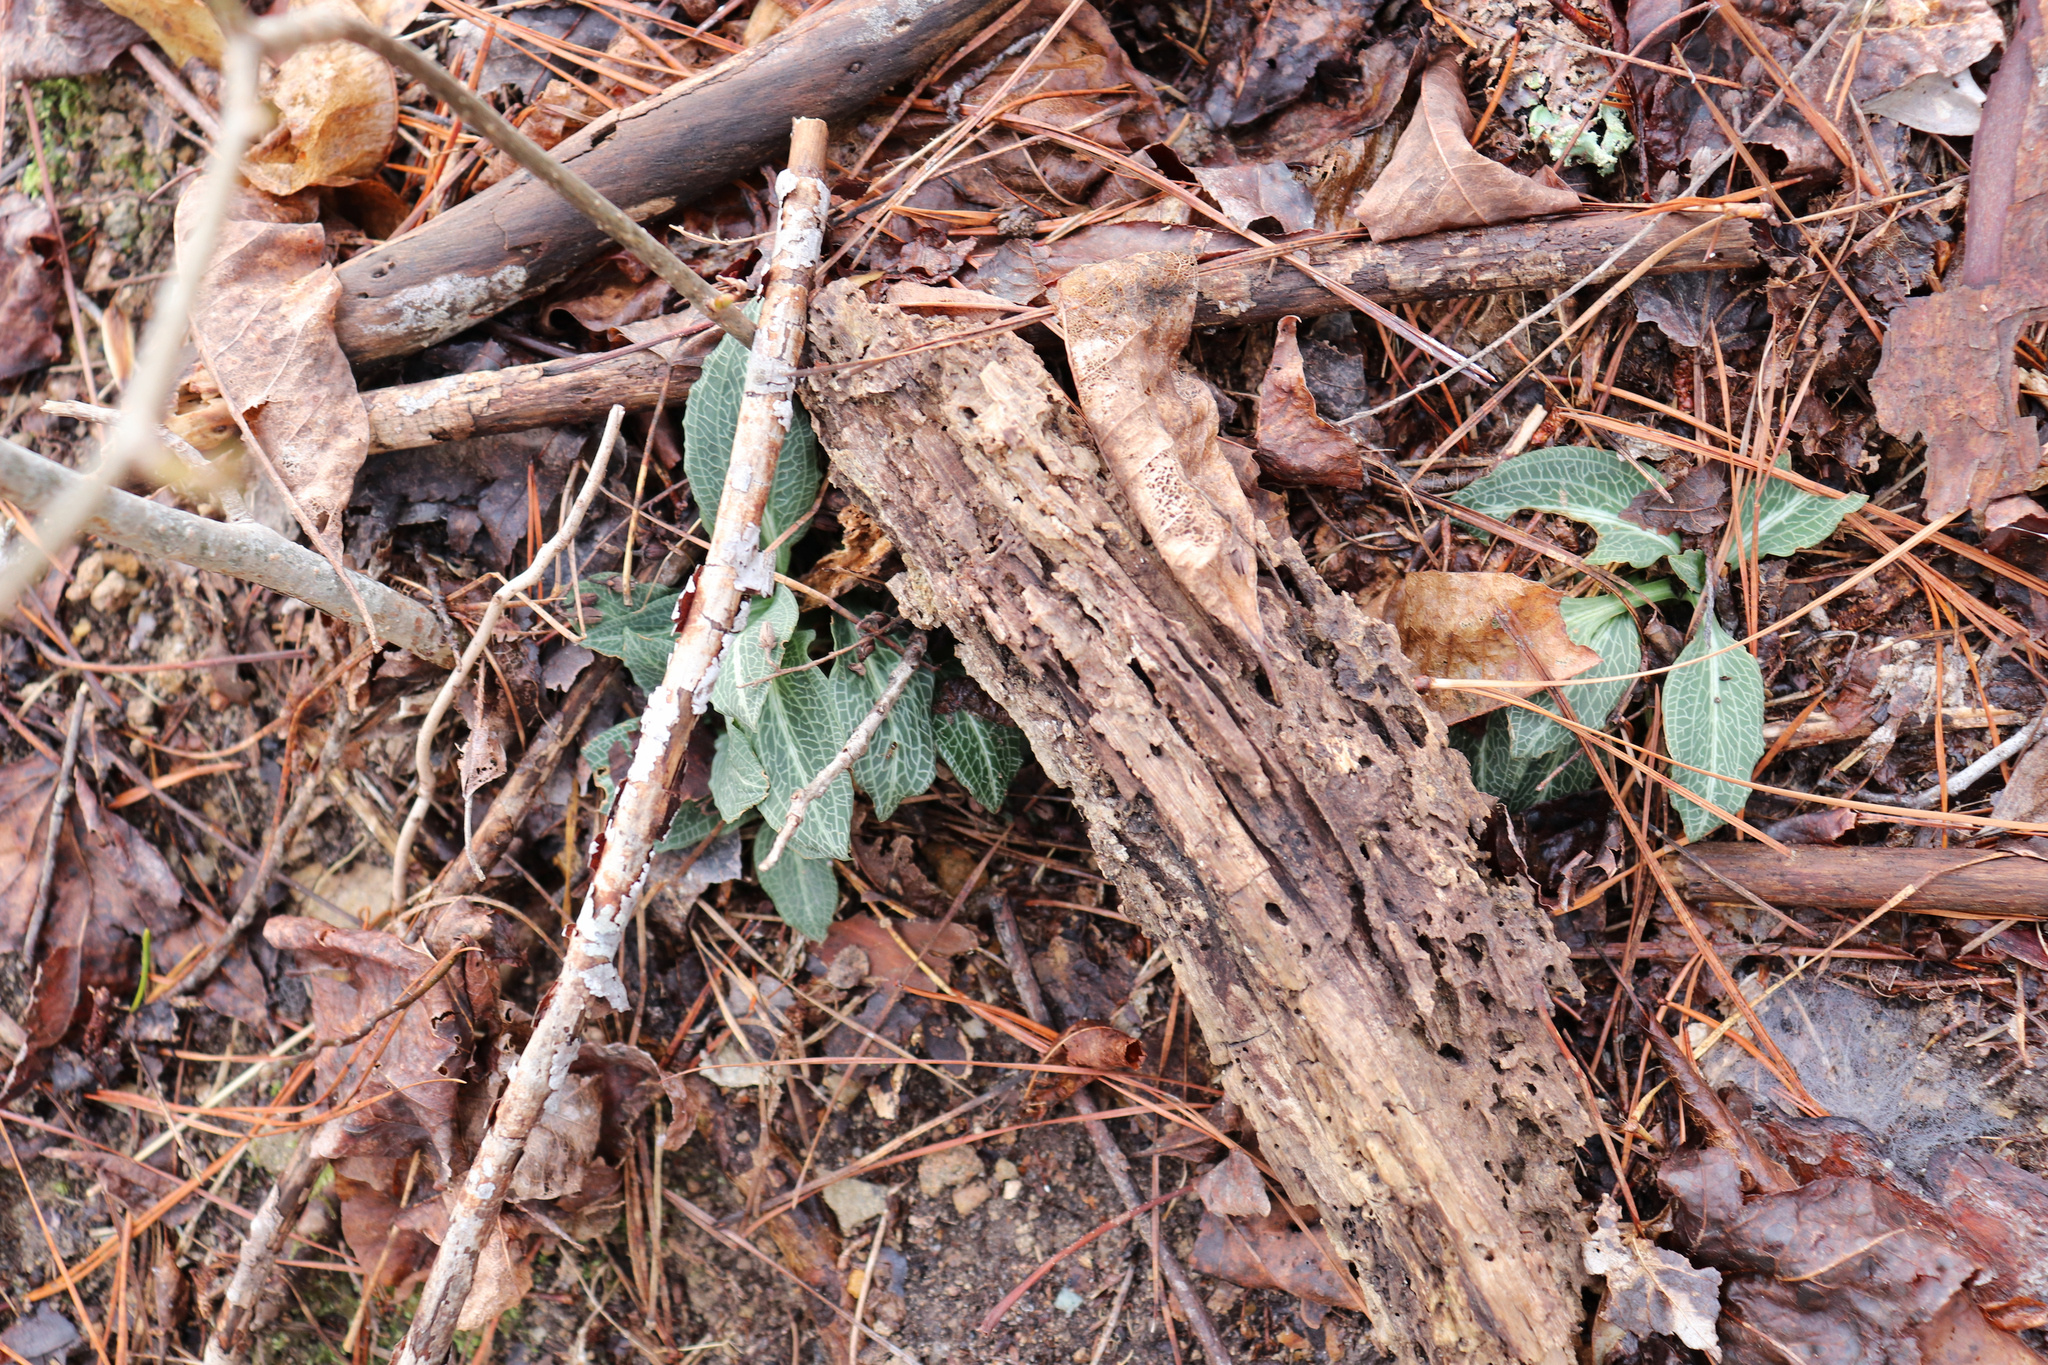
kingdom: Plantae
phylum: Tracheophyta
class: Liliopsida
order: Asparagales
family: Orchidaceae
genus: Goodyera
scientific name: Goodyera pubescens
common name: Downy rattlesnake-plantain
